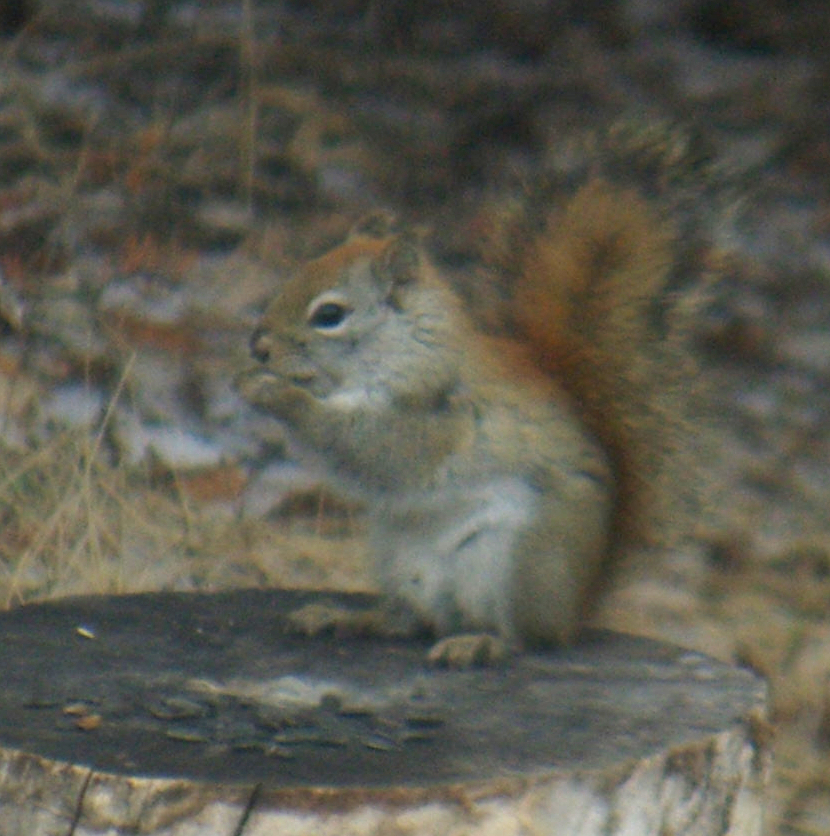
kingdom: Animalia
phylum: Chordata
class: Mammalia
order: Rodentia
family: Sciuridae
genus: Tamiasciurus
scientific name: Tamiasciurus hudsonicus
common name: Red squirrel
